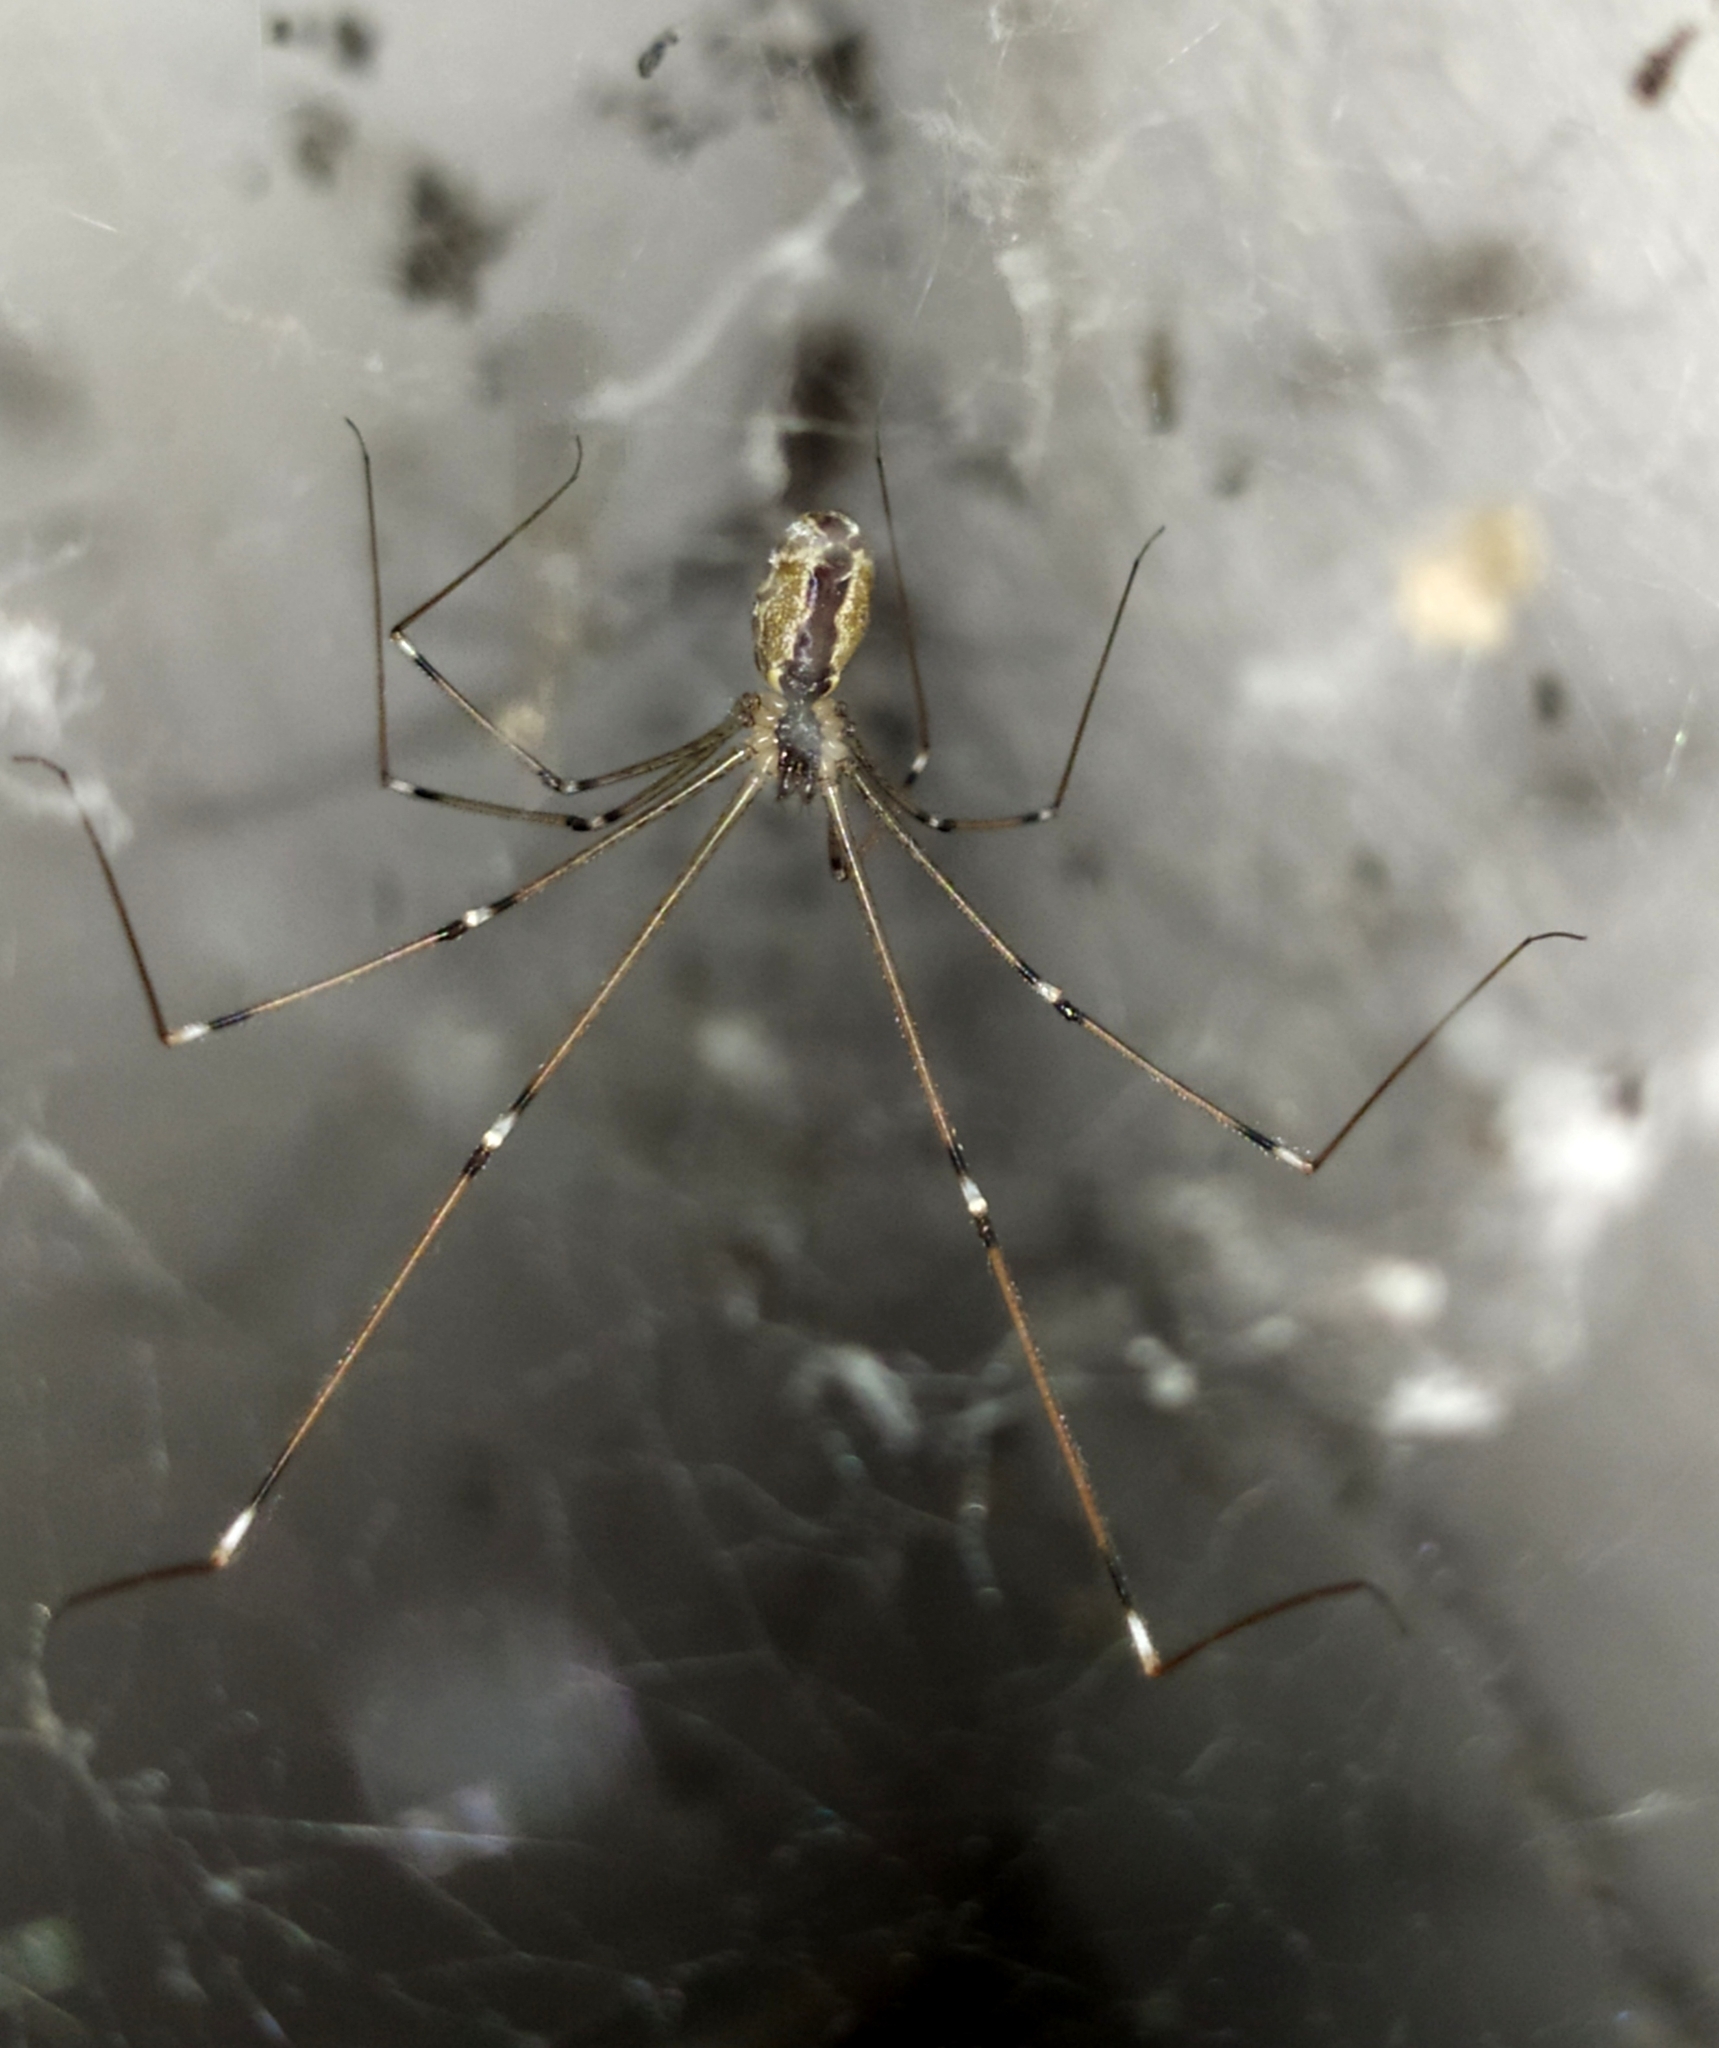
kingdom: Animalia
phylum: Arthropoda
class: Arachnida
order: Araneae
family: Pholcidae
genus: Holocnemus
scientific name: Holocnemus pluchei
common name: Marbled cellar spider
